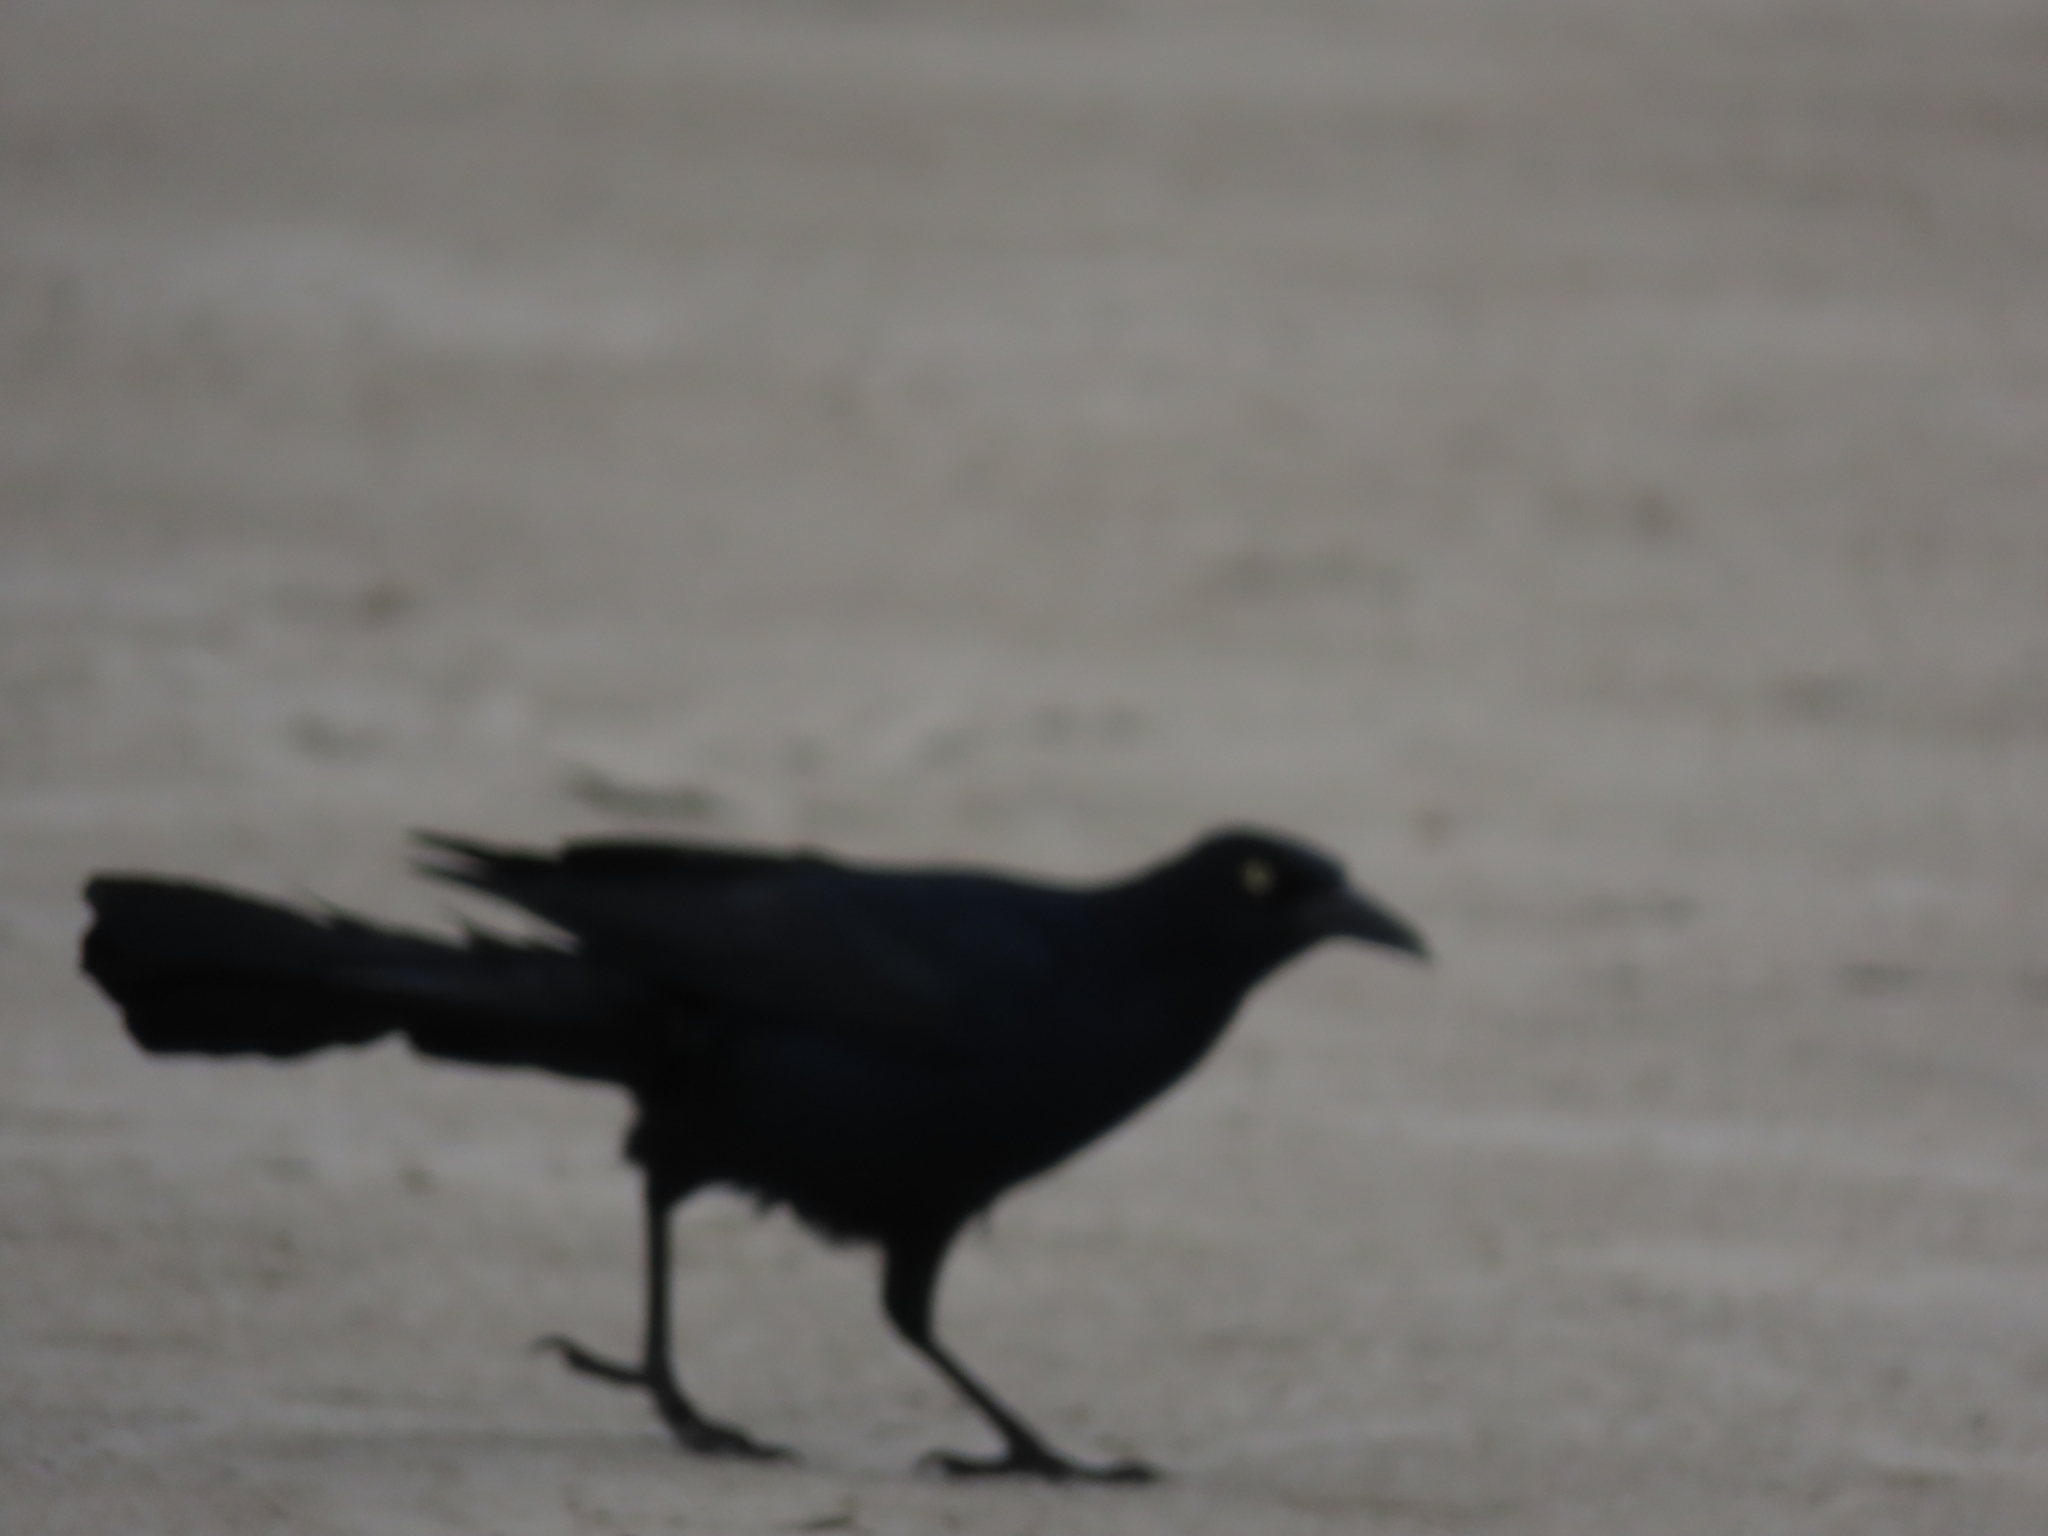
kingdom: Animalia
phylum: Chordata
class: Aves
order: Passeriformes
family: Icteridae
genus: Quiscalus
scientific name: Quiscalus mexicanus
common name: Great-tailed grackle
